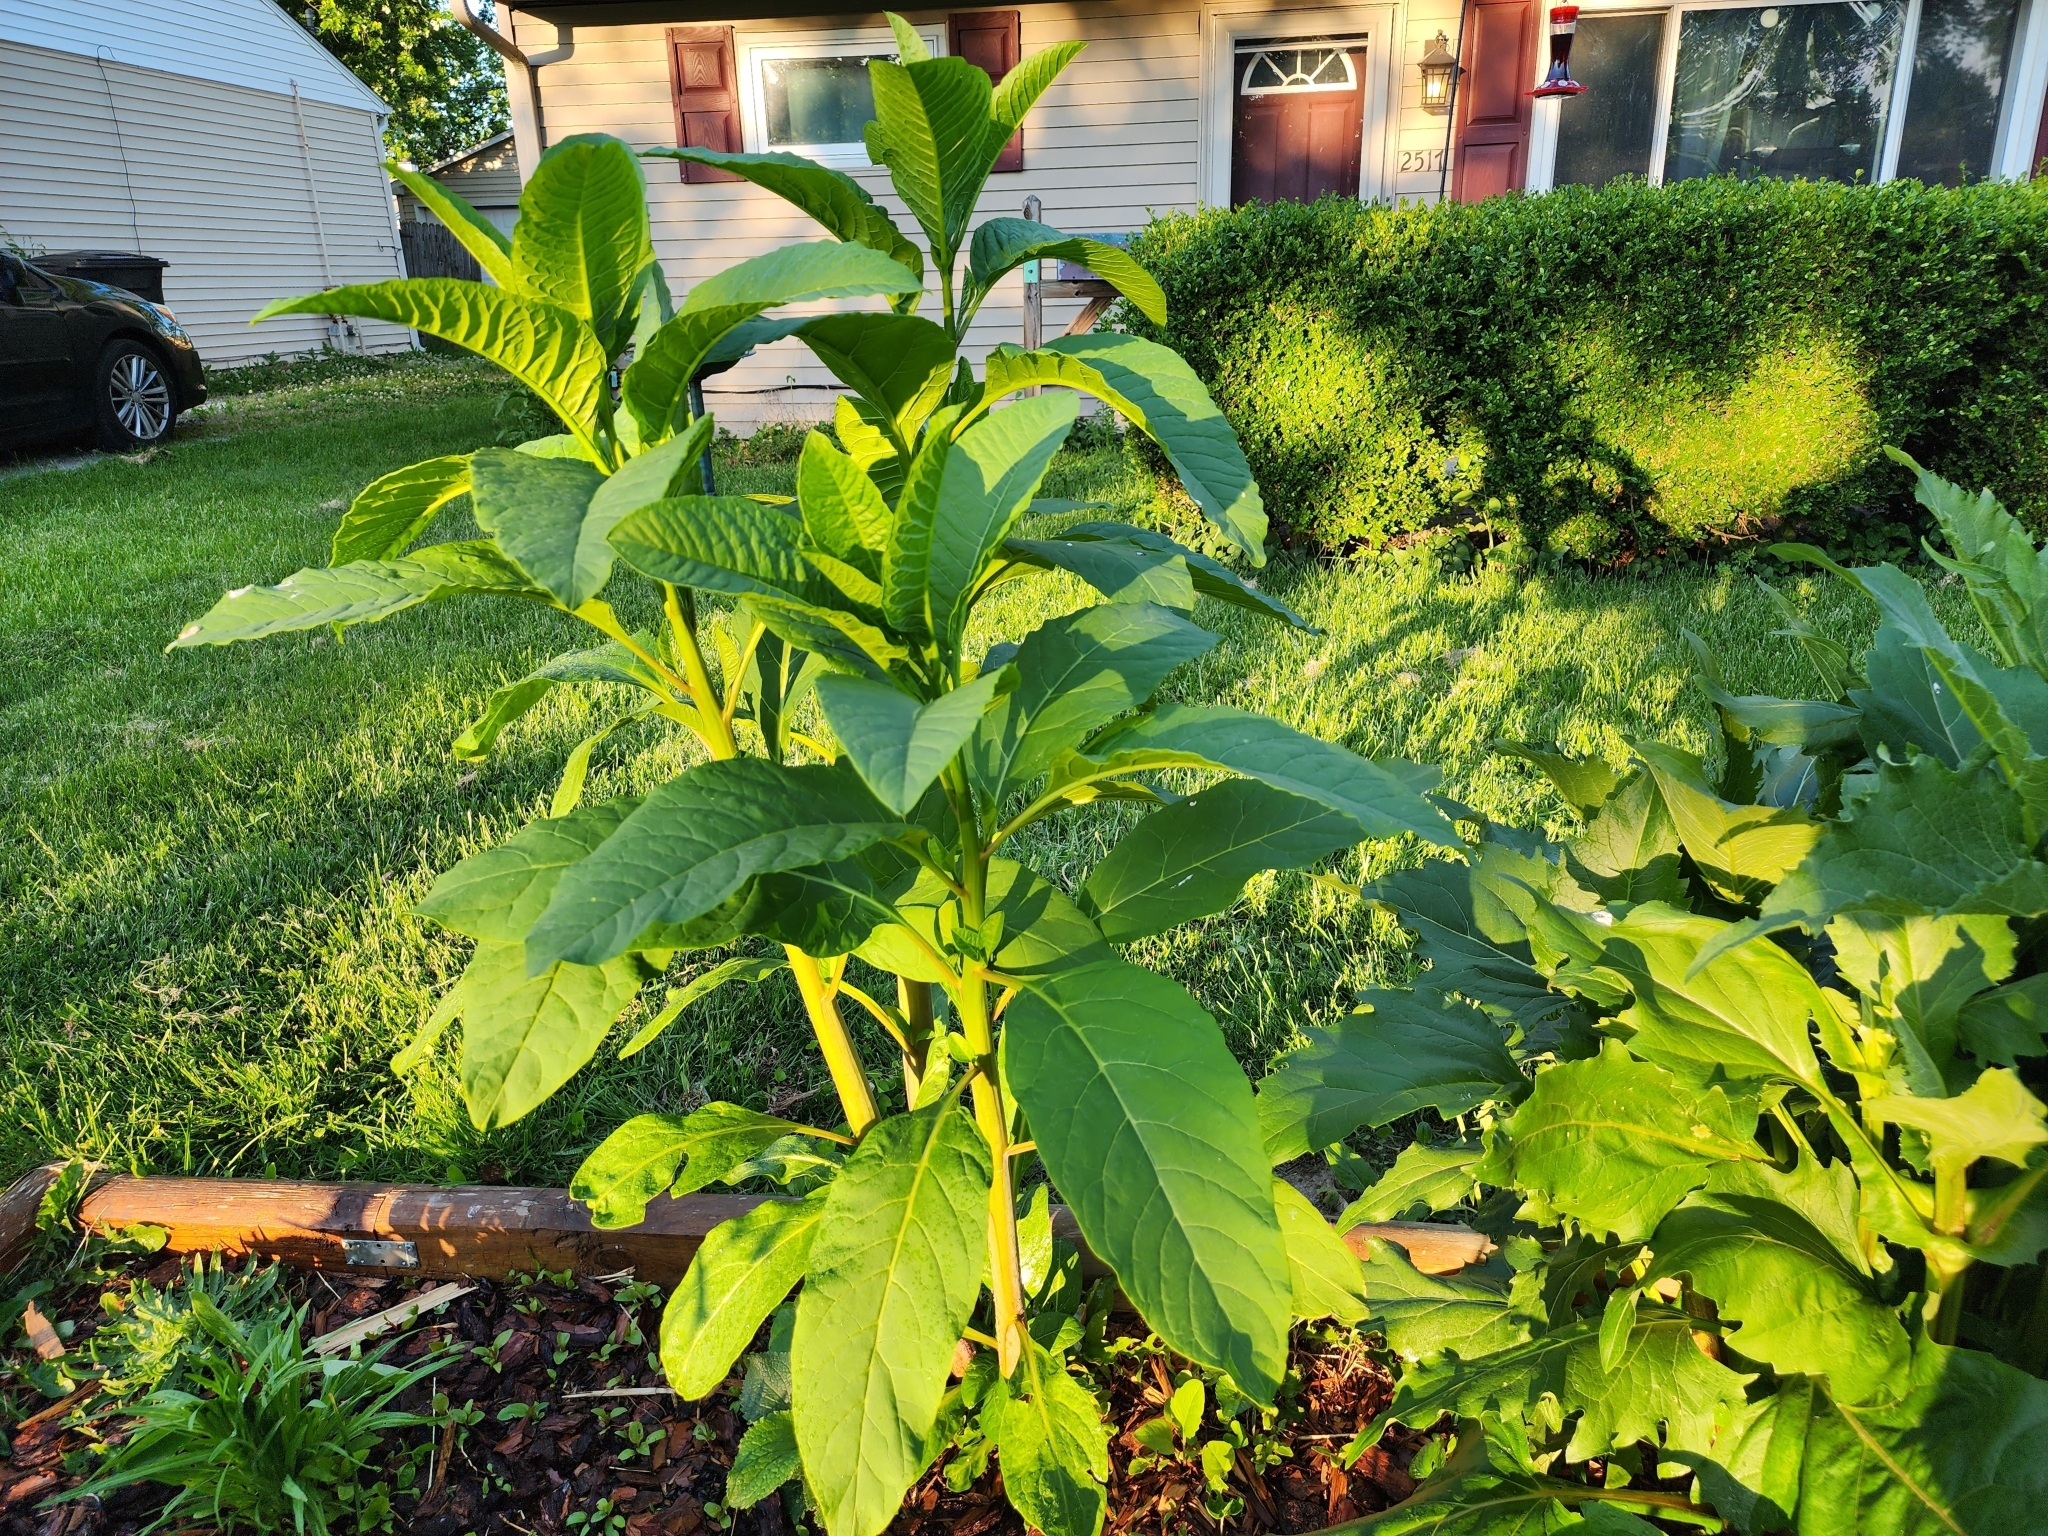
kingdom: Plantae
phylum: Tracheophyta
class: Magnoliopsida
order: Caryophyllales
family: Phytolaccaceae
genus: Phytolacca
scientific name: Phytolacca americana
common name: American pokeweed
